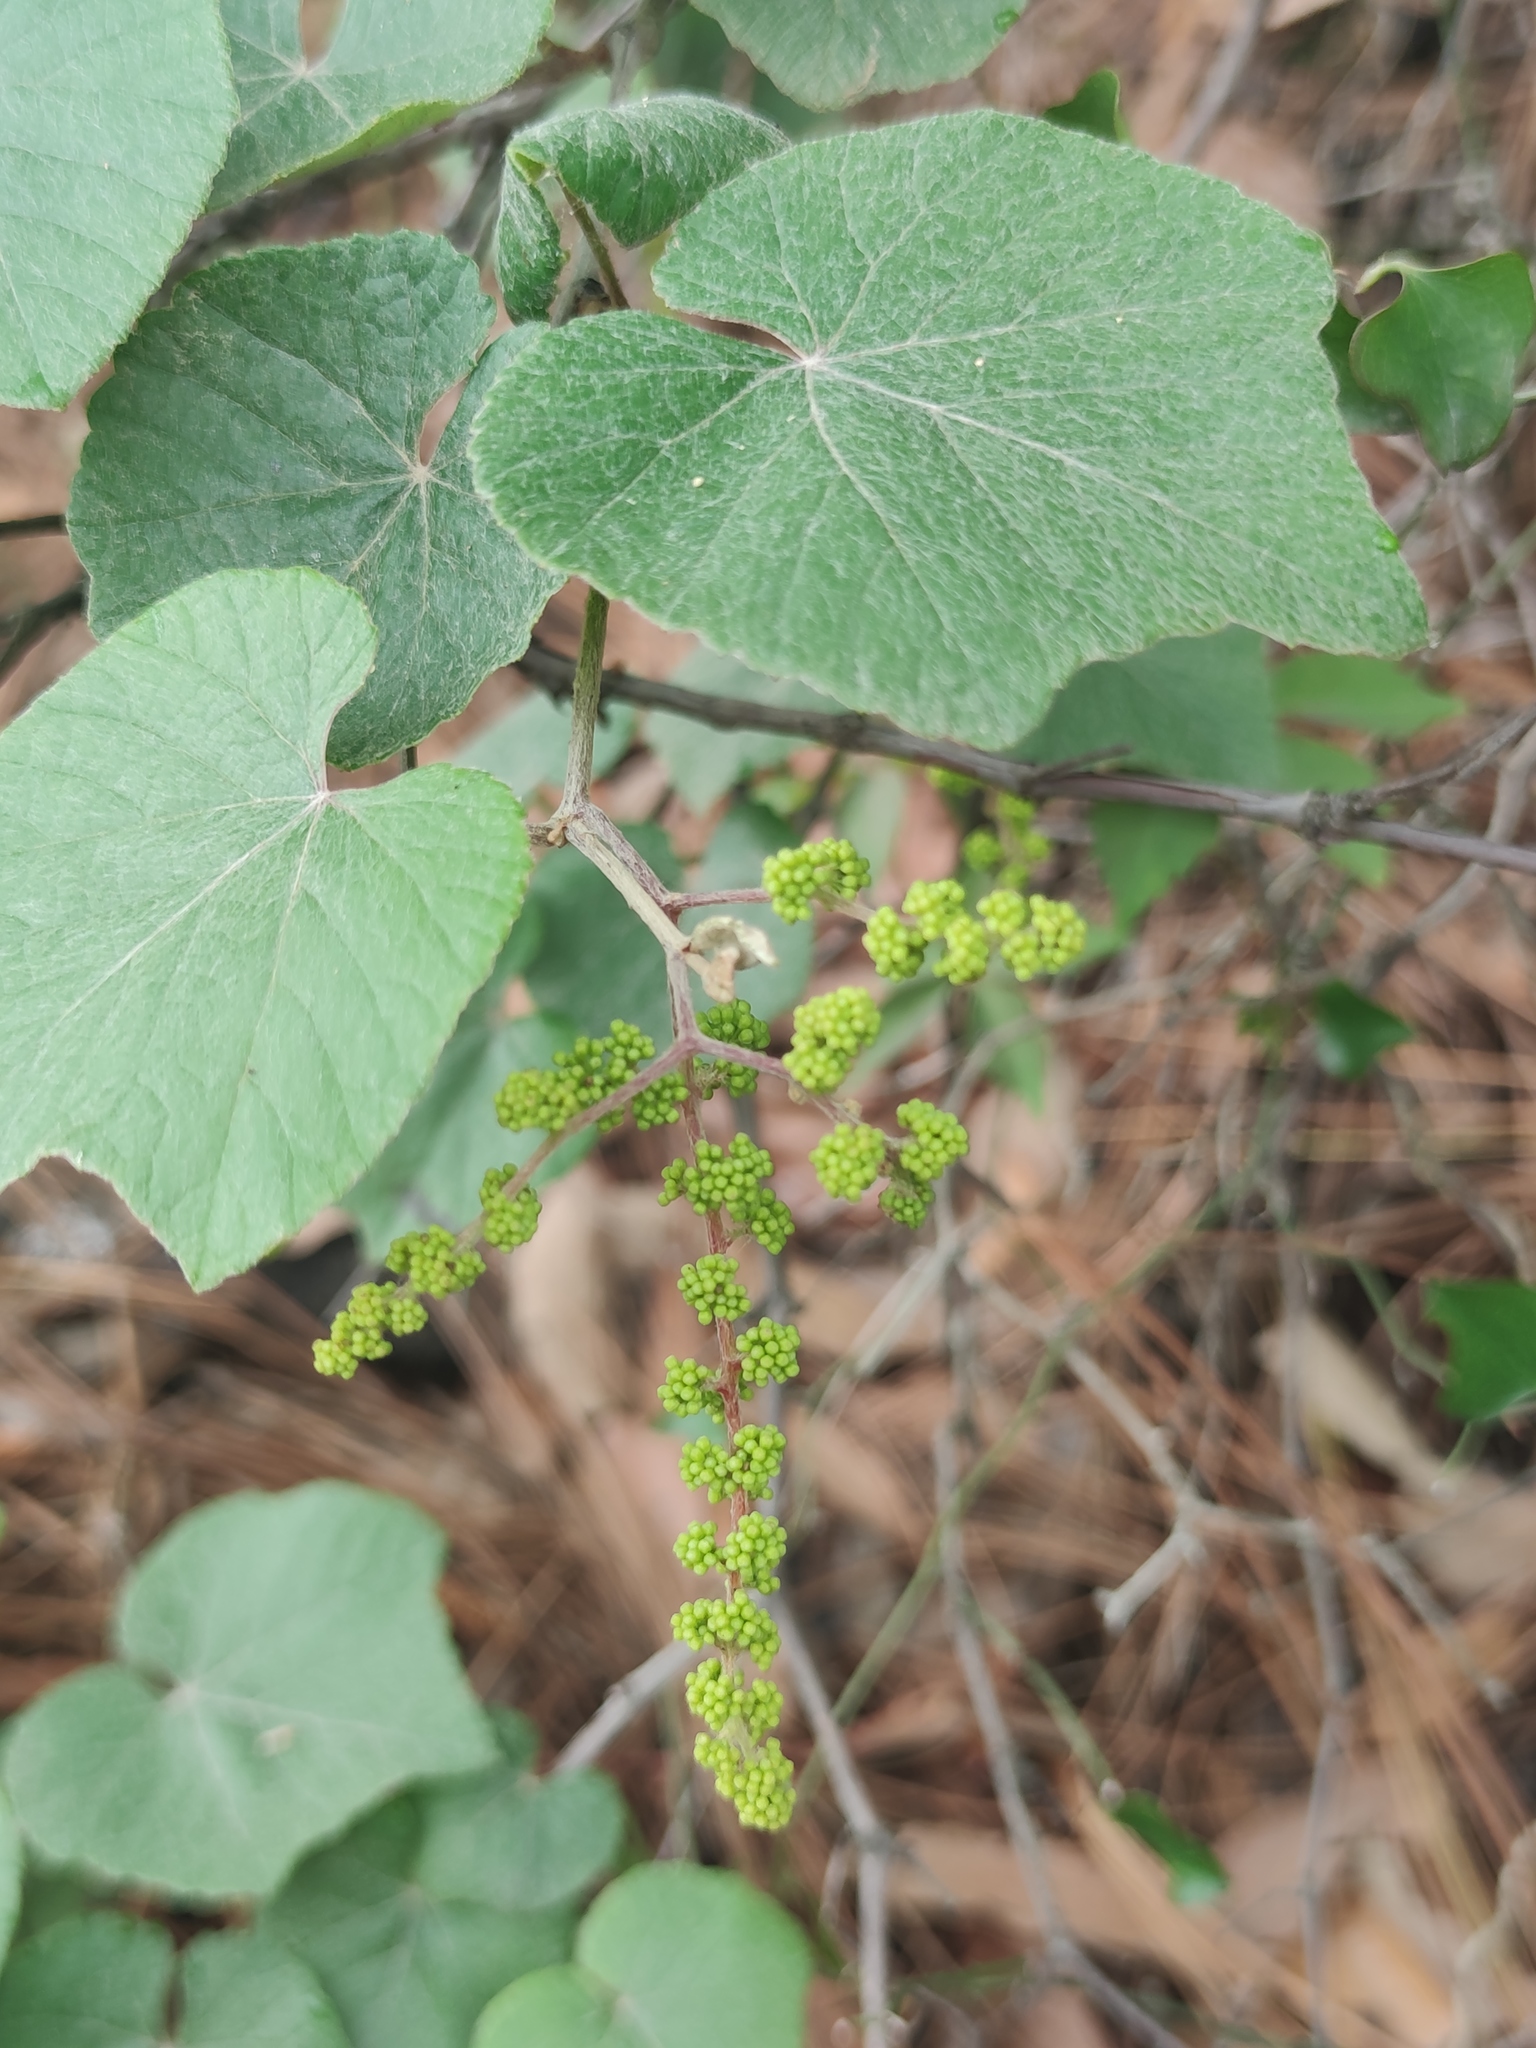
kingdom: Plantae
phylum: Tracheophyta
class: Magnoliopsida
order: Vitales
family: Vitaceae
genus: Vitis
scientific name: Vitis cinerea
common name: Ashy grape
